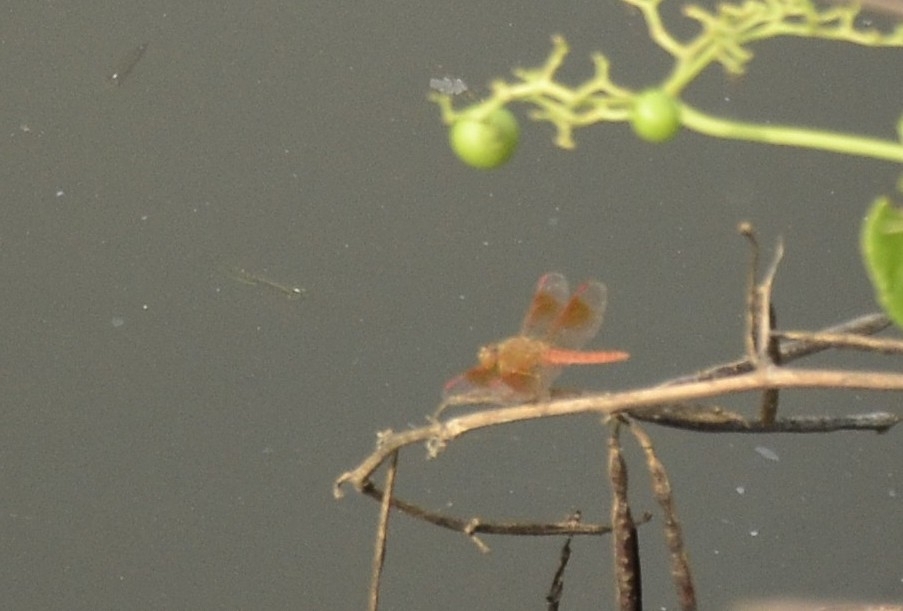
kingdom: Animalia
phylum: Arthropoda
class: Insecta
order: Odonata
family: Libellulidae
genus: Brachythemis
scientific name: Brachythemis contaminata
